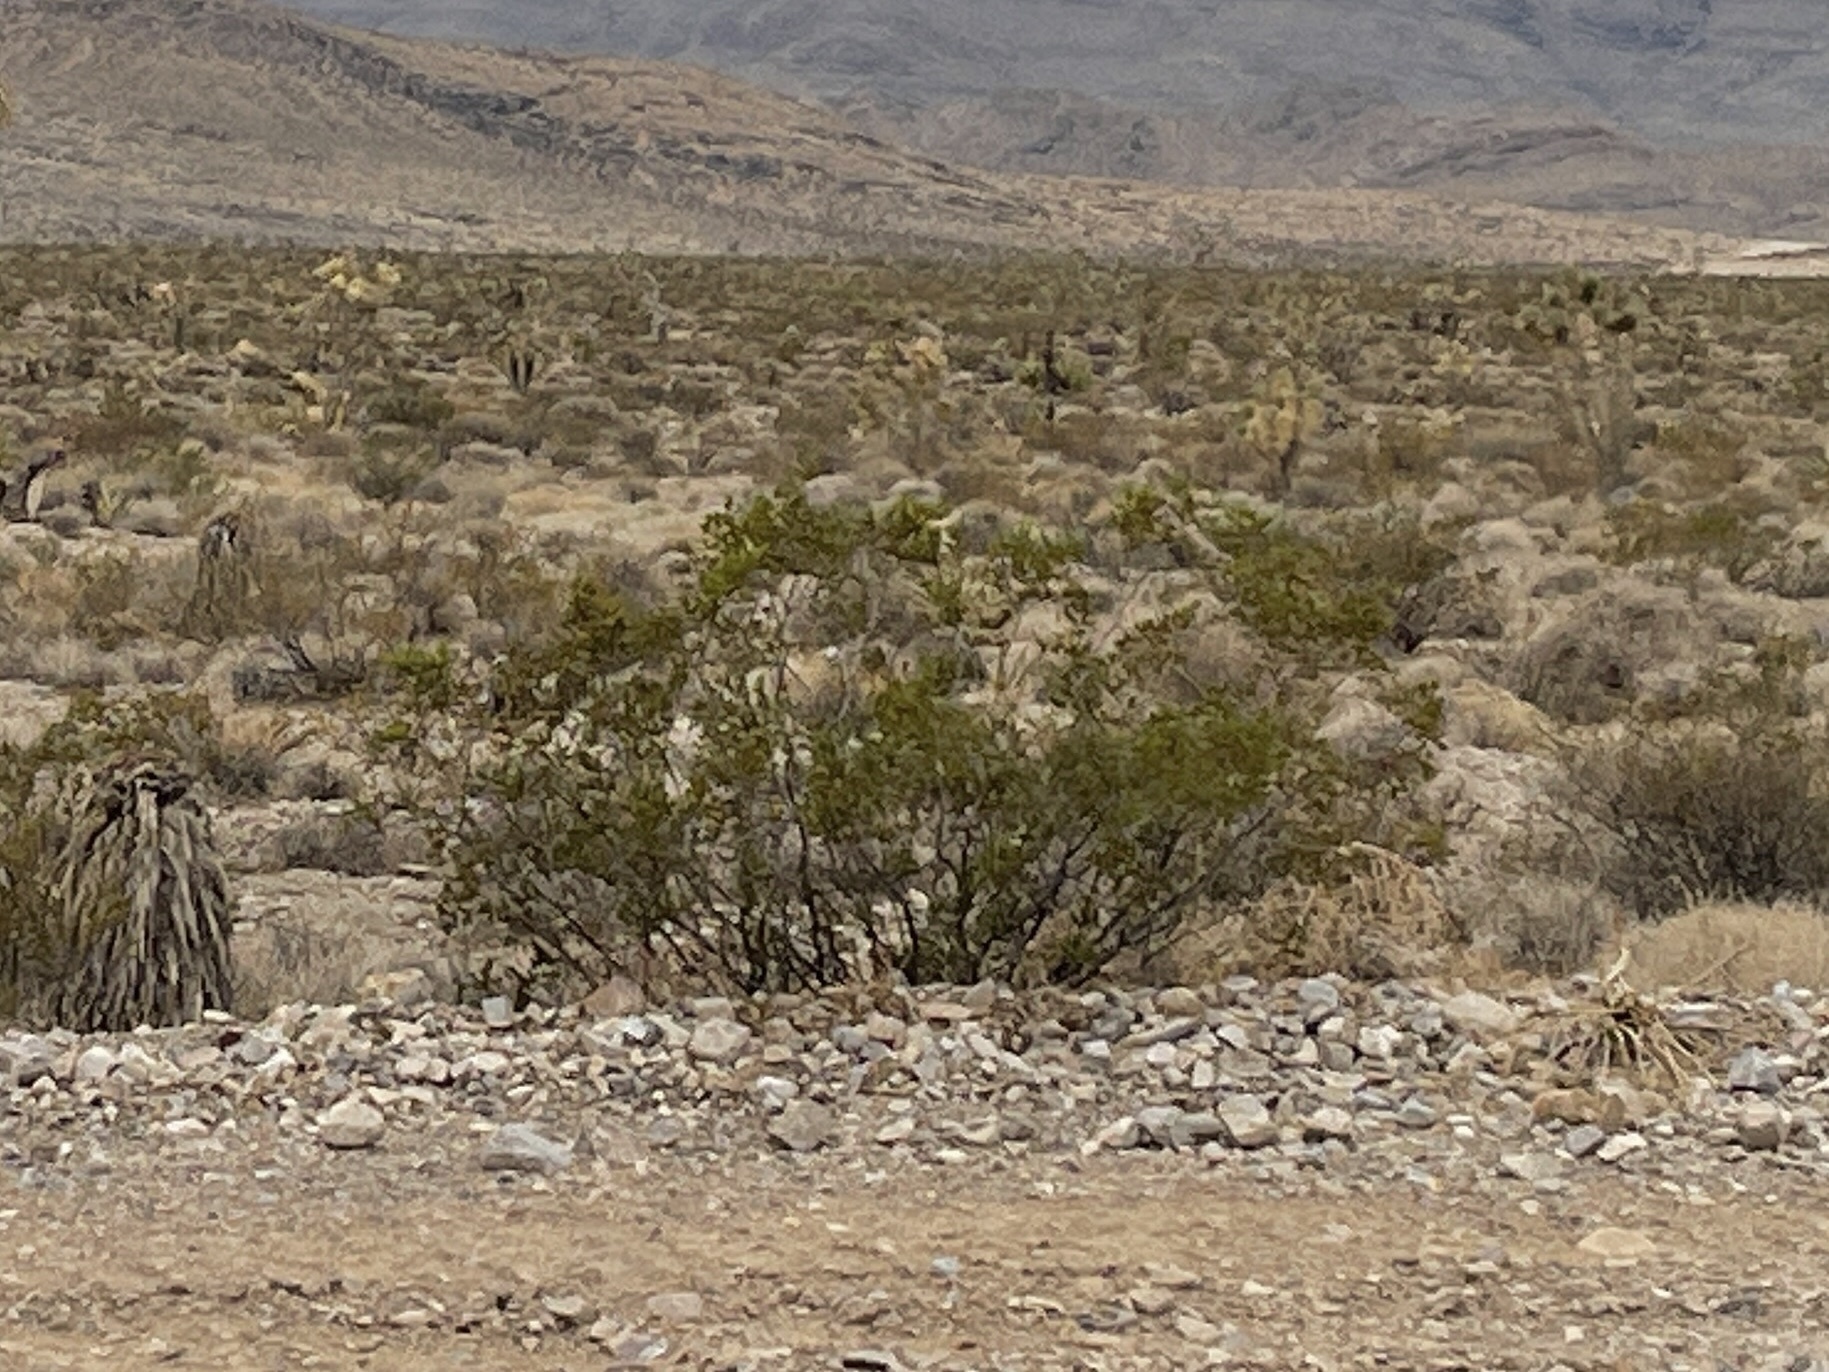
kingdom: Plantae
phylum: Tracheophyta
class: Magnoliopsida
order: Zygophyllales
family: Zygophyllaceae
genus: Larrea
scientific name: Larrea tridentata
